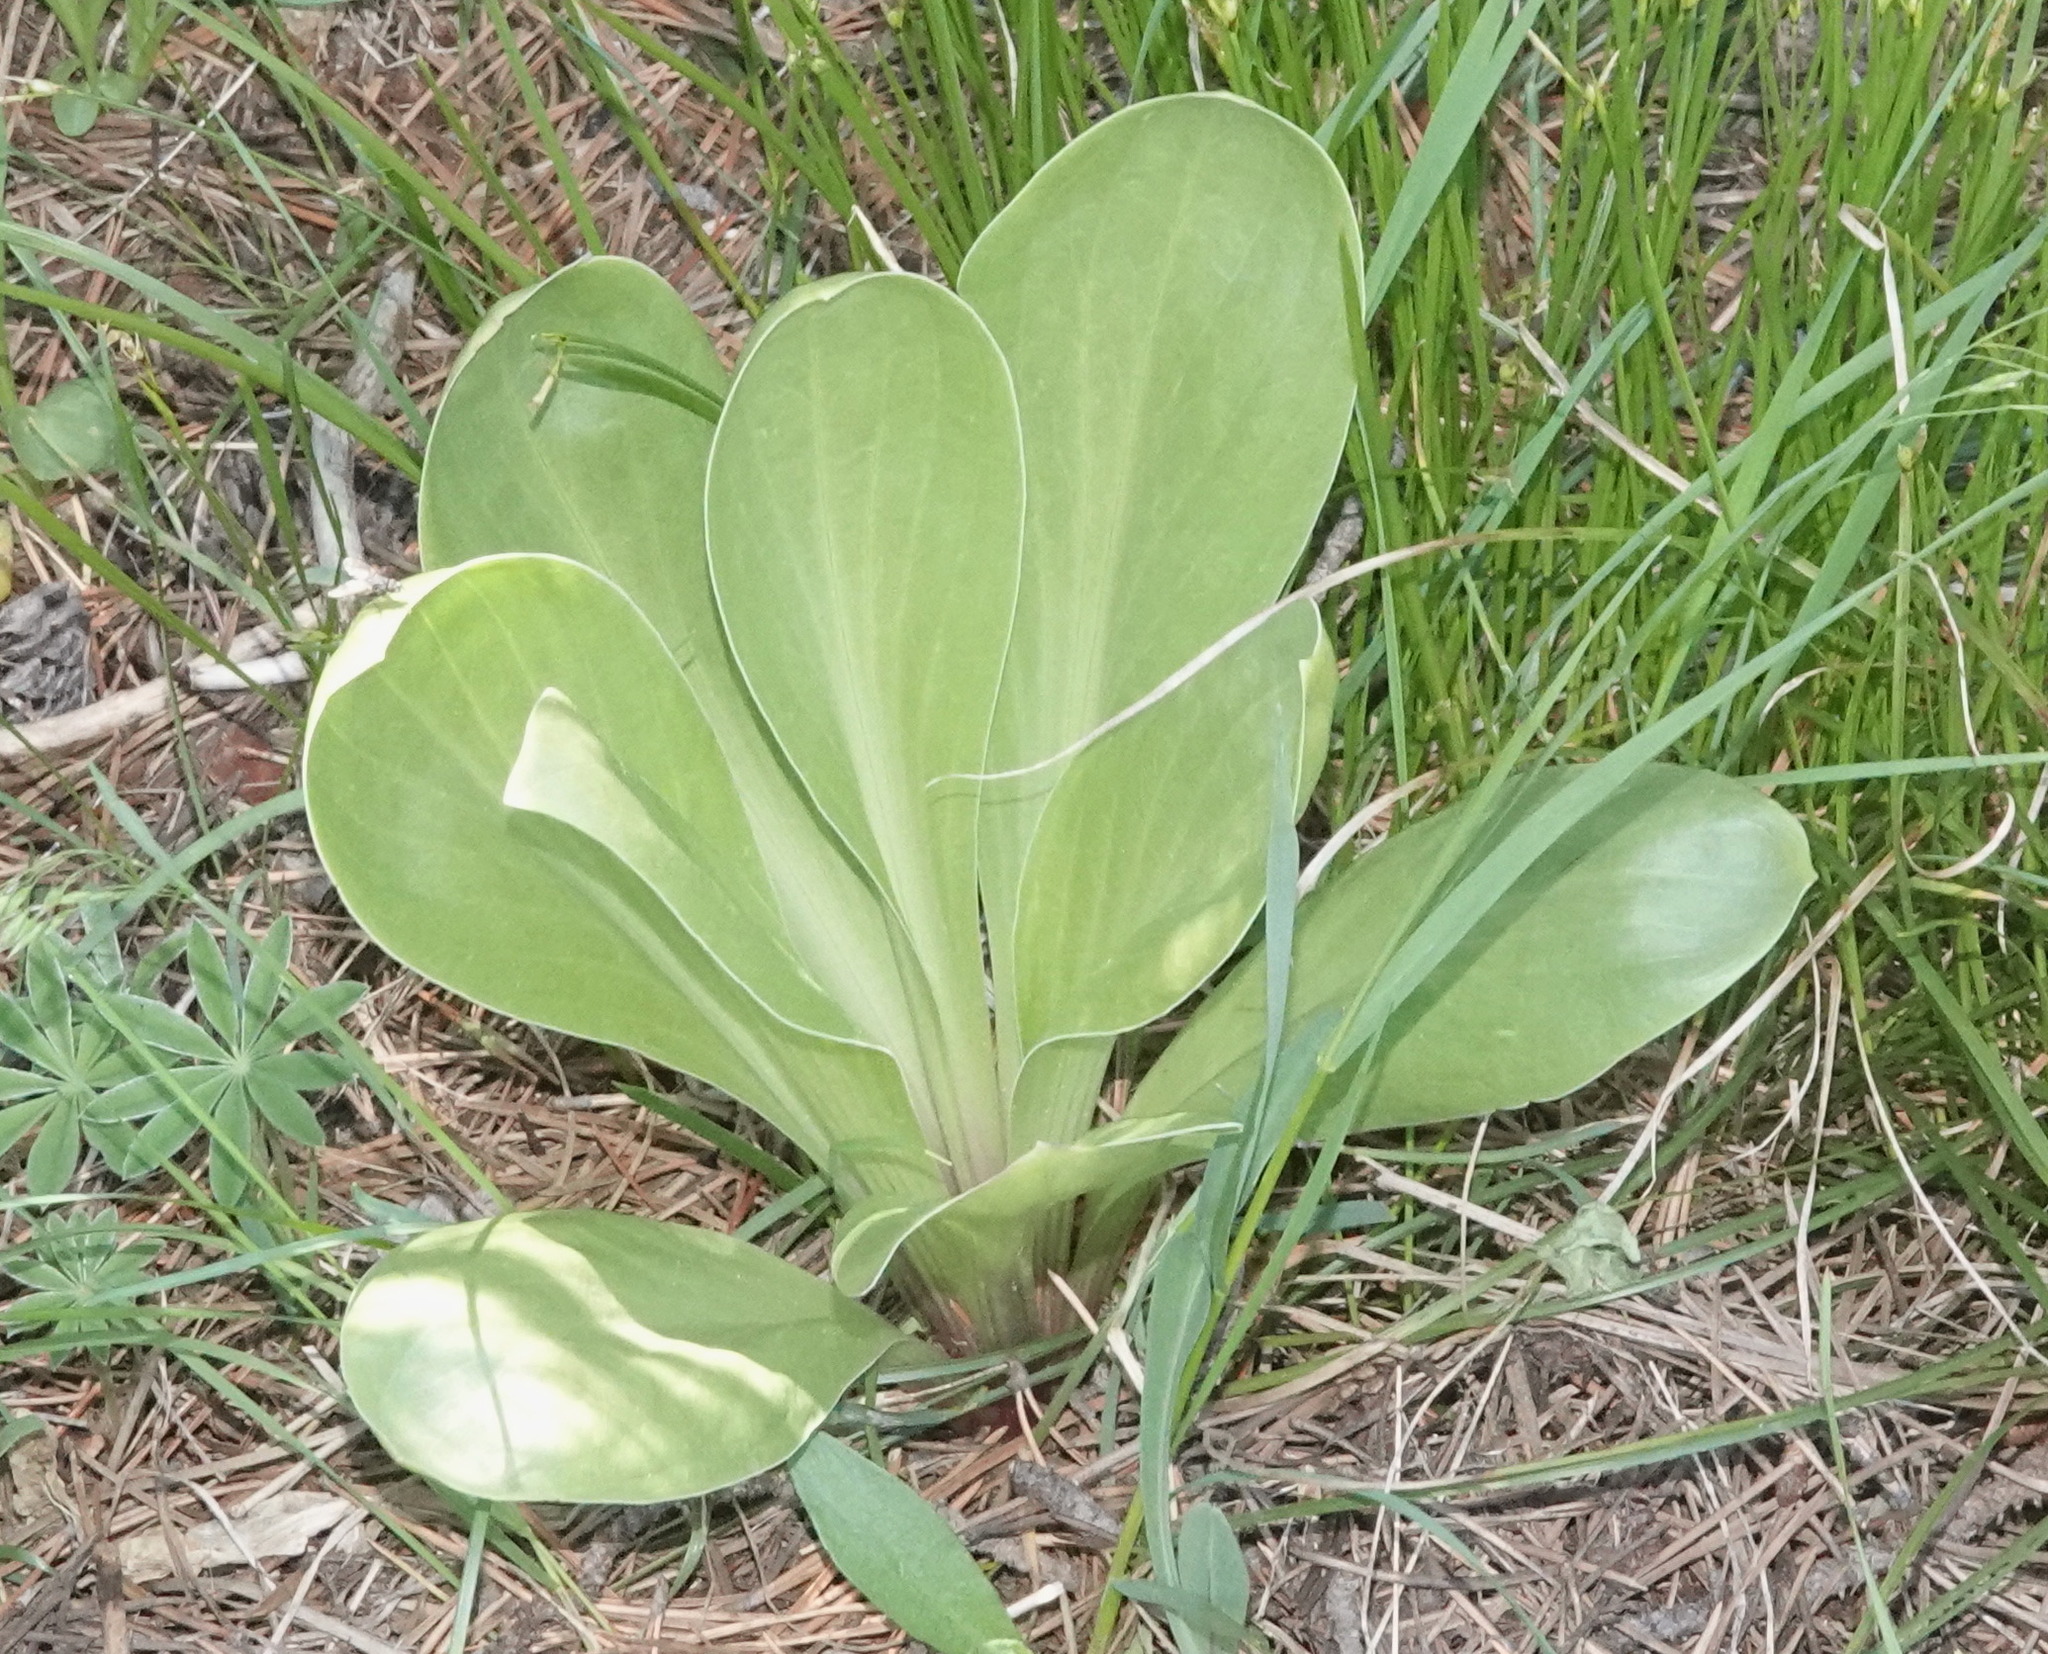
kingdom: Plantae
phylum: Tracheophyta
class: Magnoliopsida
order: Gentianales
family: Gentianaceae
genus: Frasera
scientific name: Frasera speciosa
